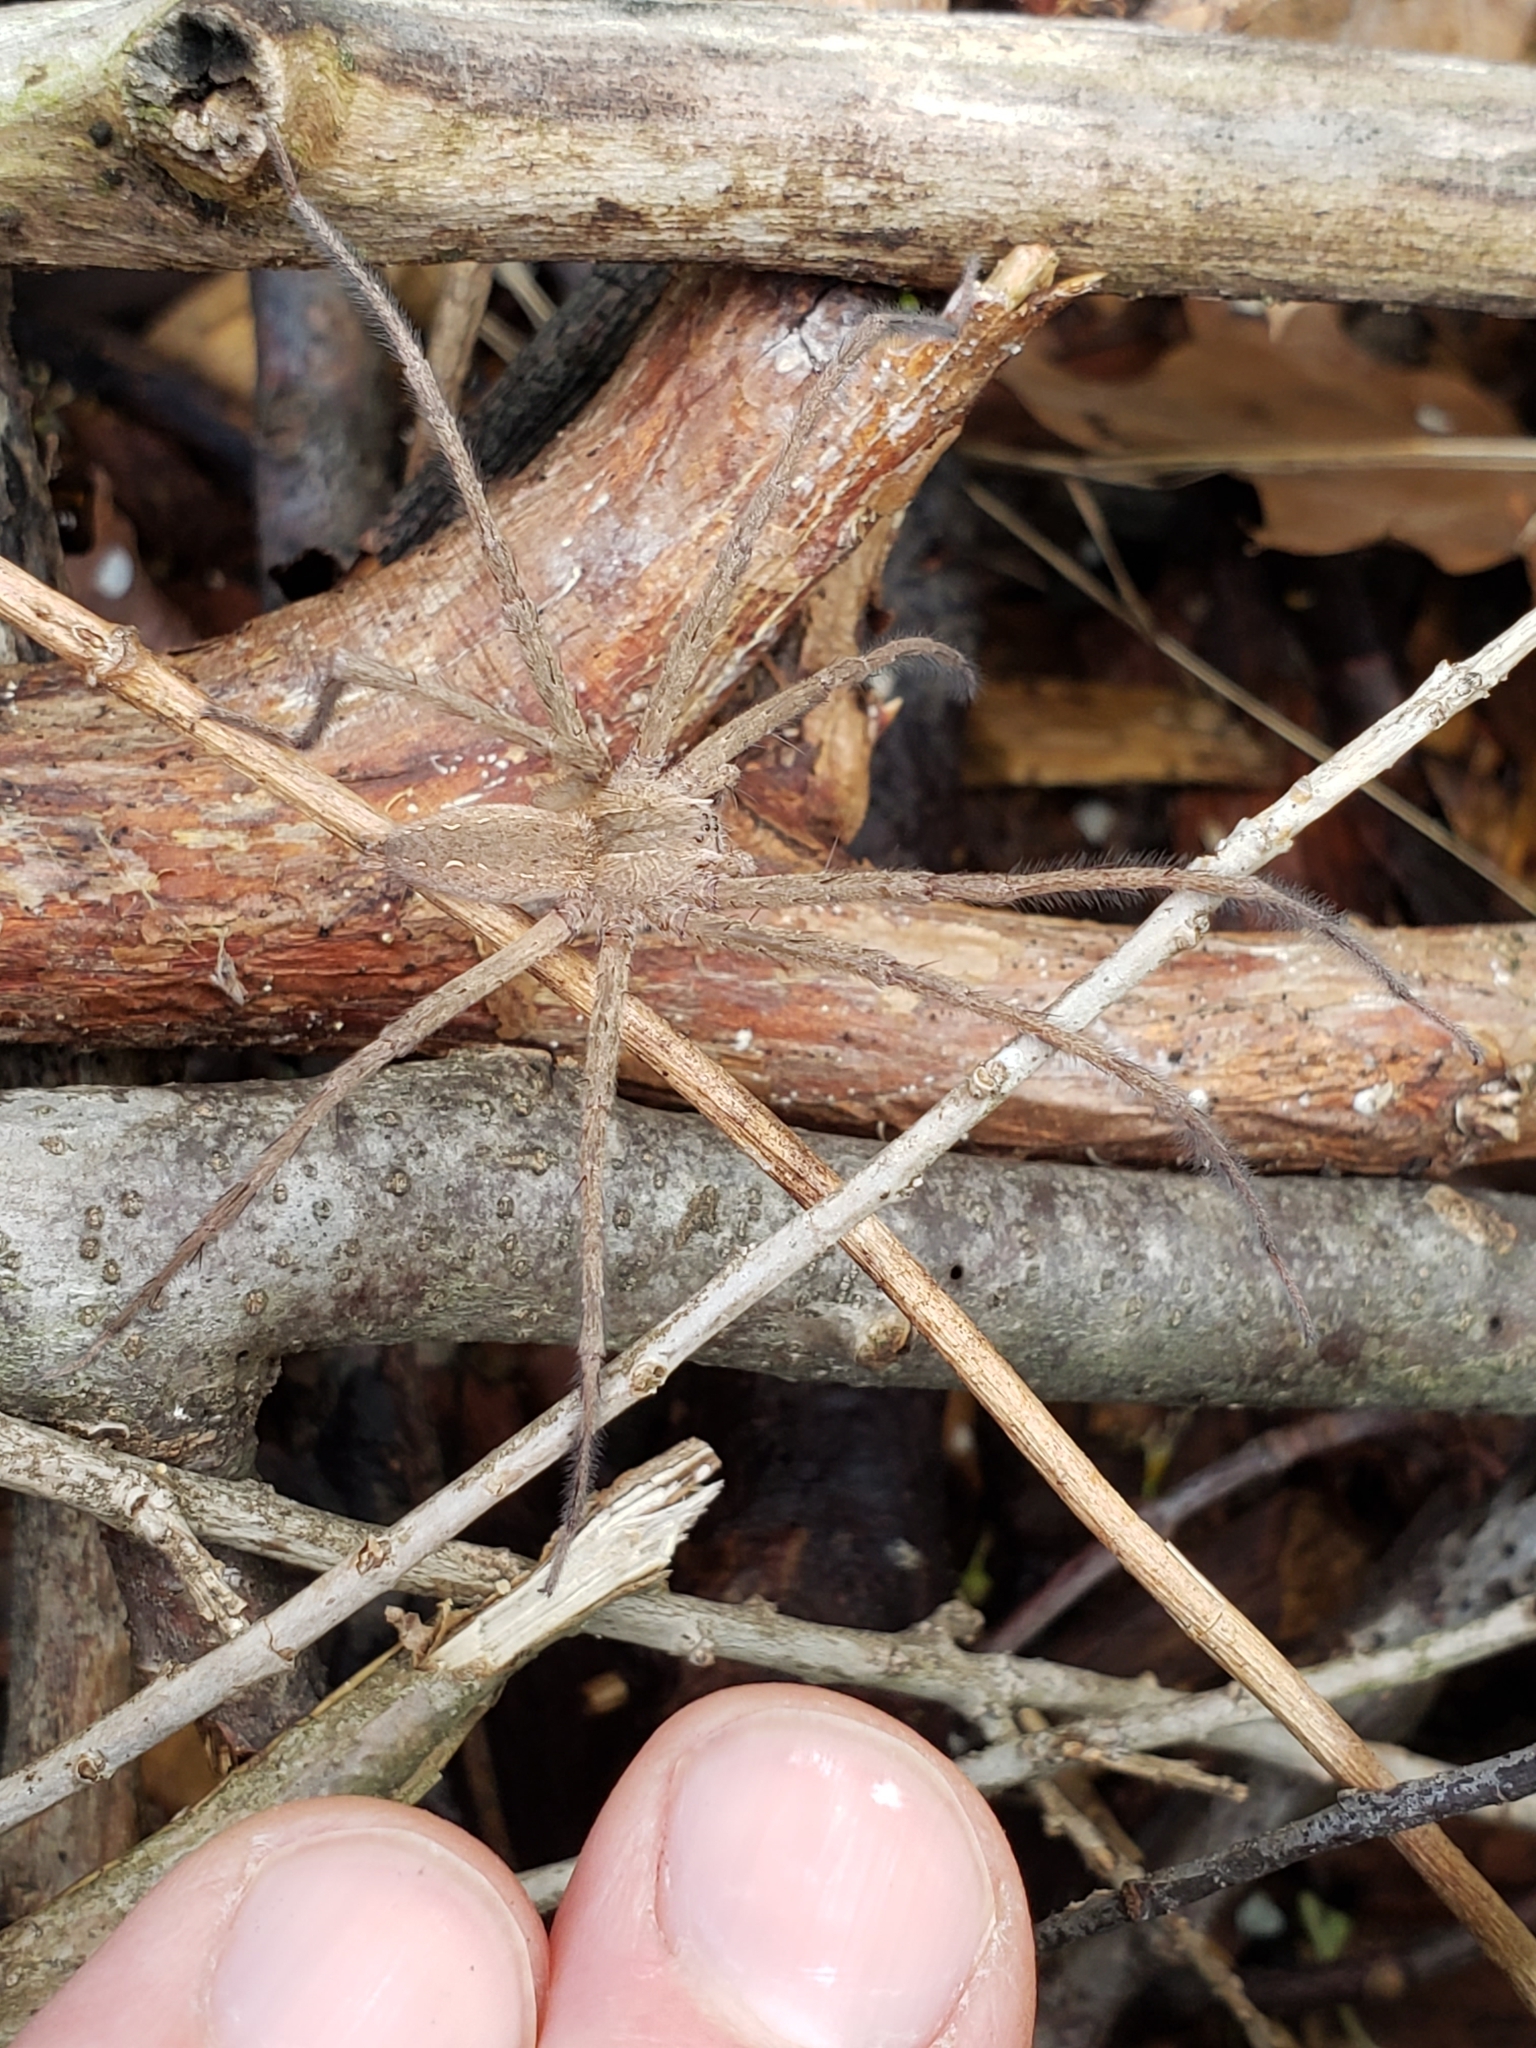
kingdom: Animalia
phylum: Arthropoda
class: Arachnida
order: Araneae
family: Pisauridae
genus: Pisaurina
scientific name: Pisaurina mira
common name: American nursery web spider
